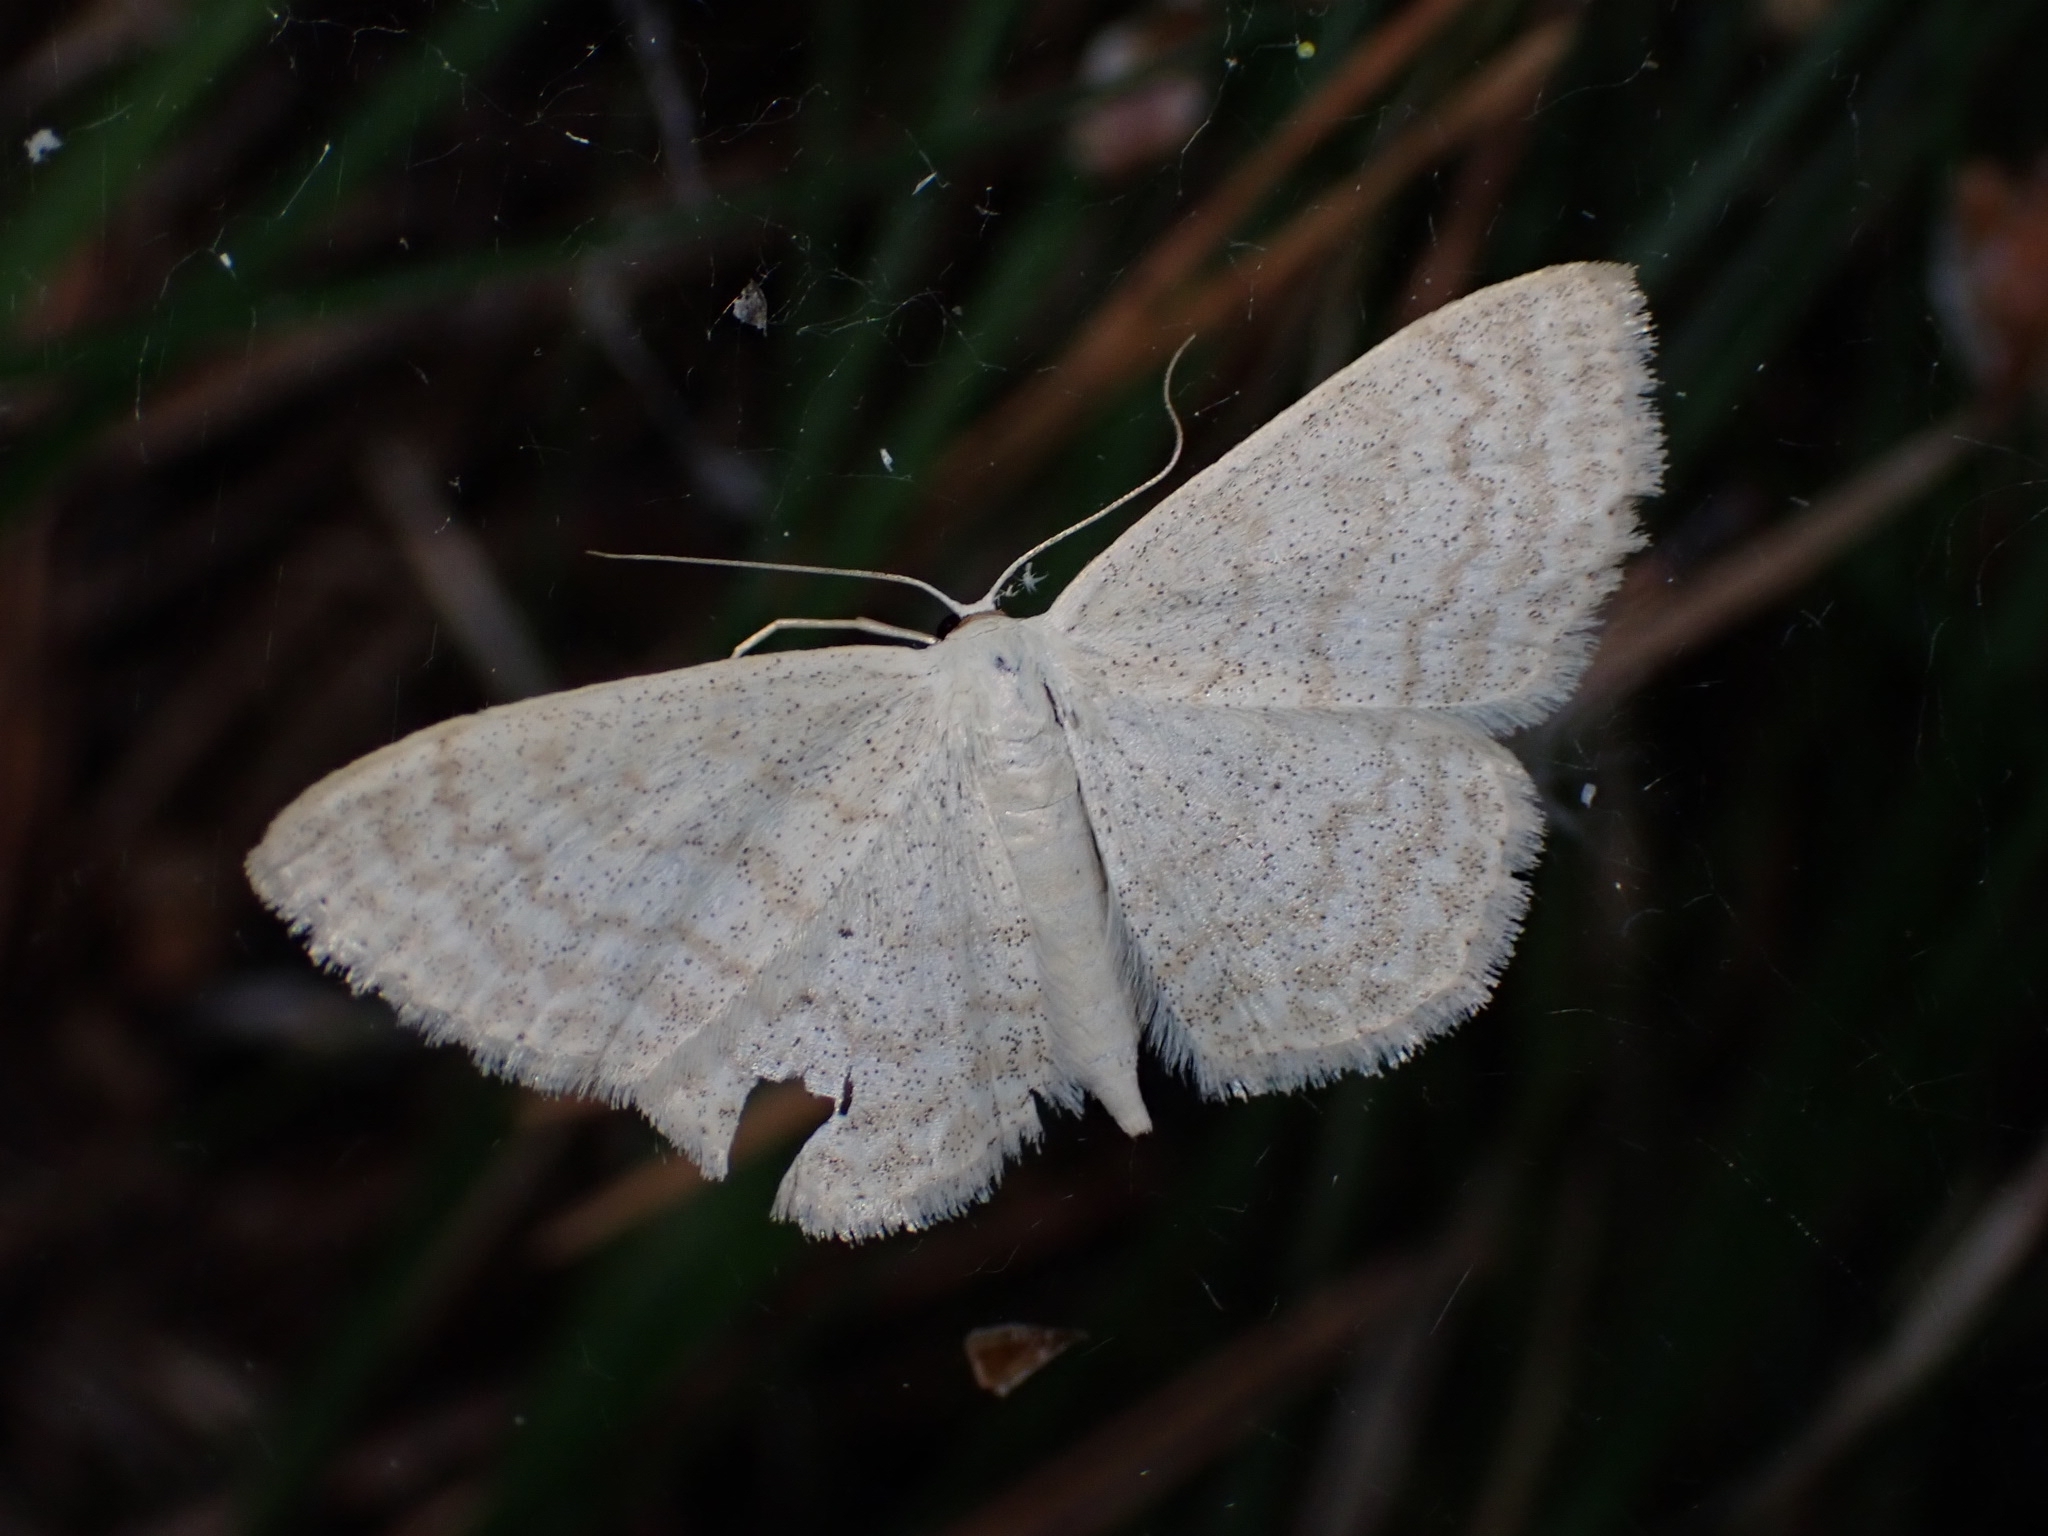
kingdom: Animalia
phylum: Arthropoda
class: Insecta
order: Lepidoptera
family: Geometridae
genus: Scopula
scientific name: Scopula floslactata
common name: Cream wave
